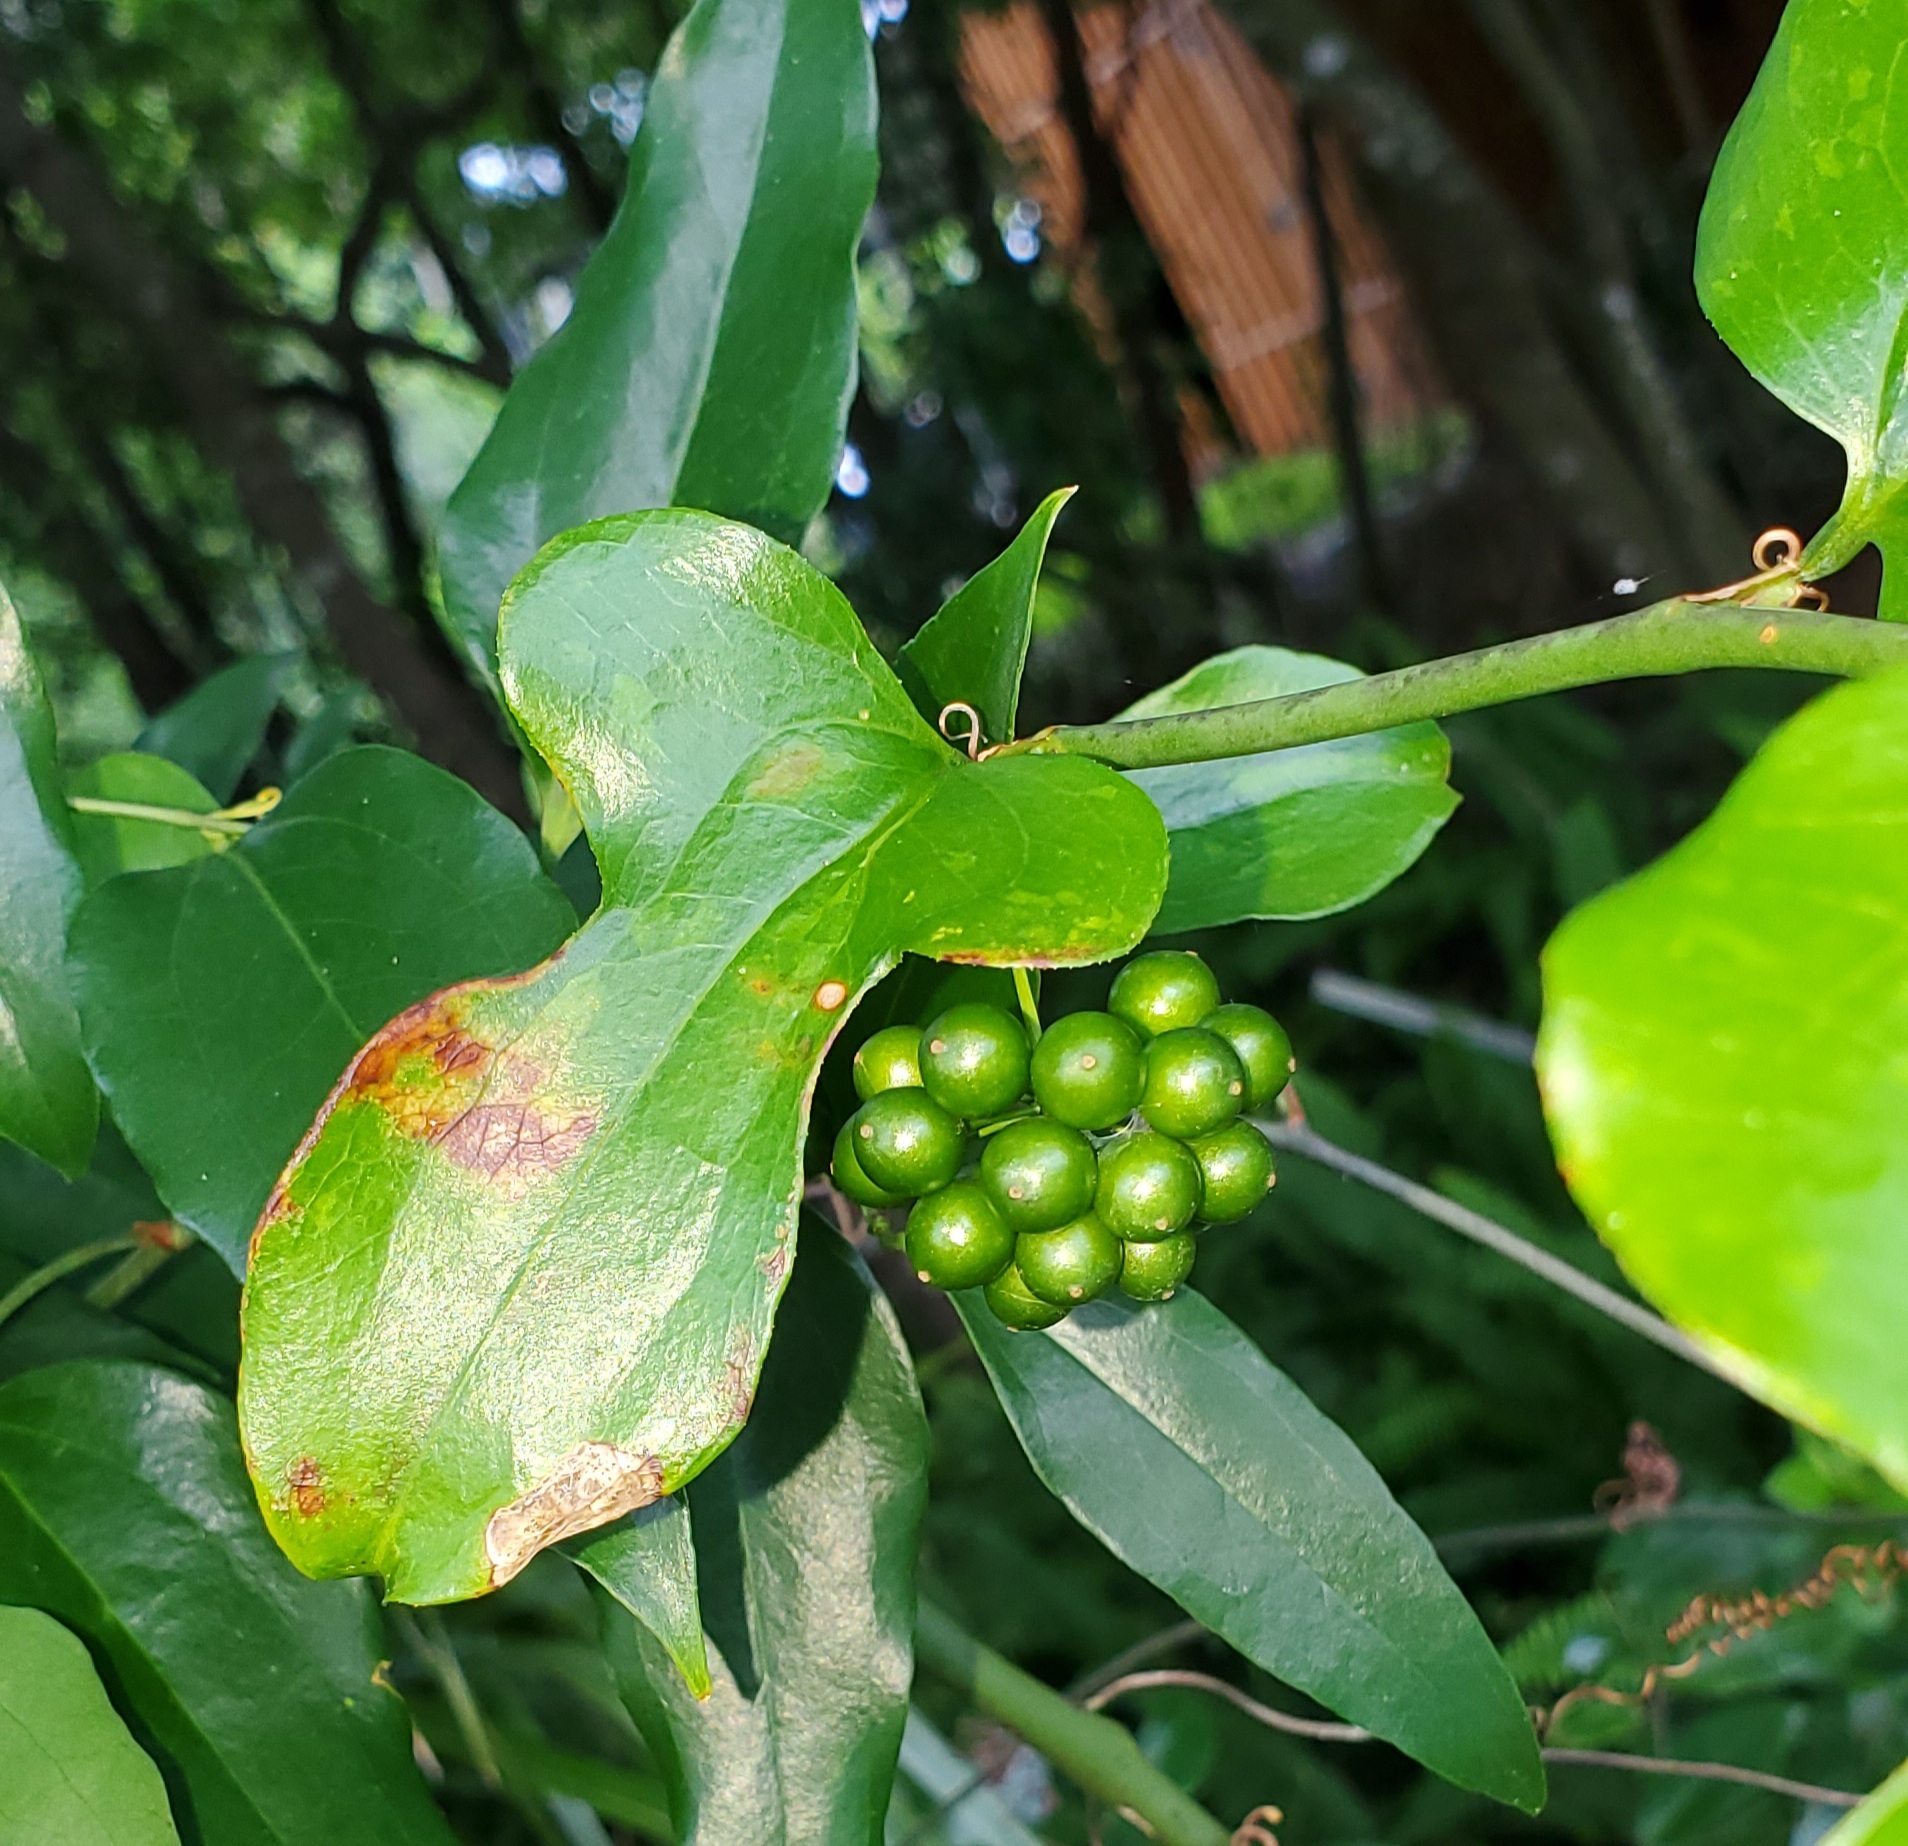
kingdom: Plantae
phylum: Tracheophyta
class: Liliopsida
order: Liliales
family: Smilacaceae
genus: Smilax
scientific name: Smilax auriculata
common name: Wild bamboo
